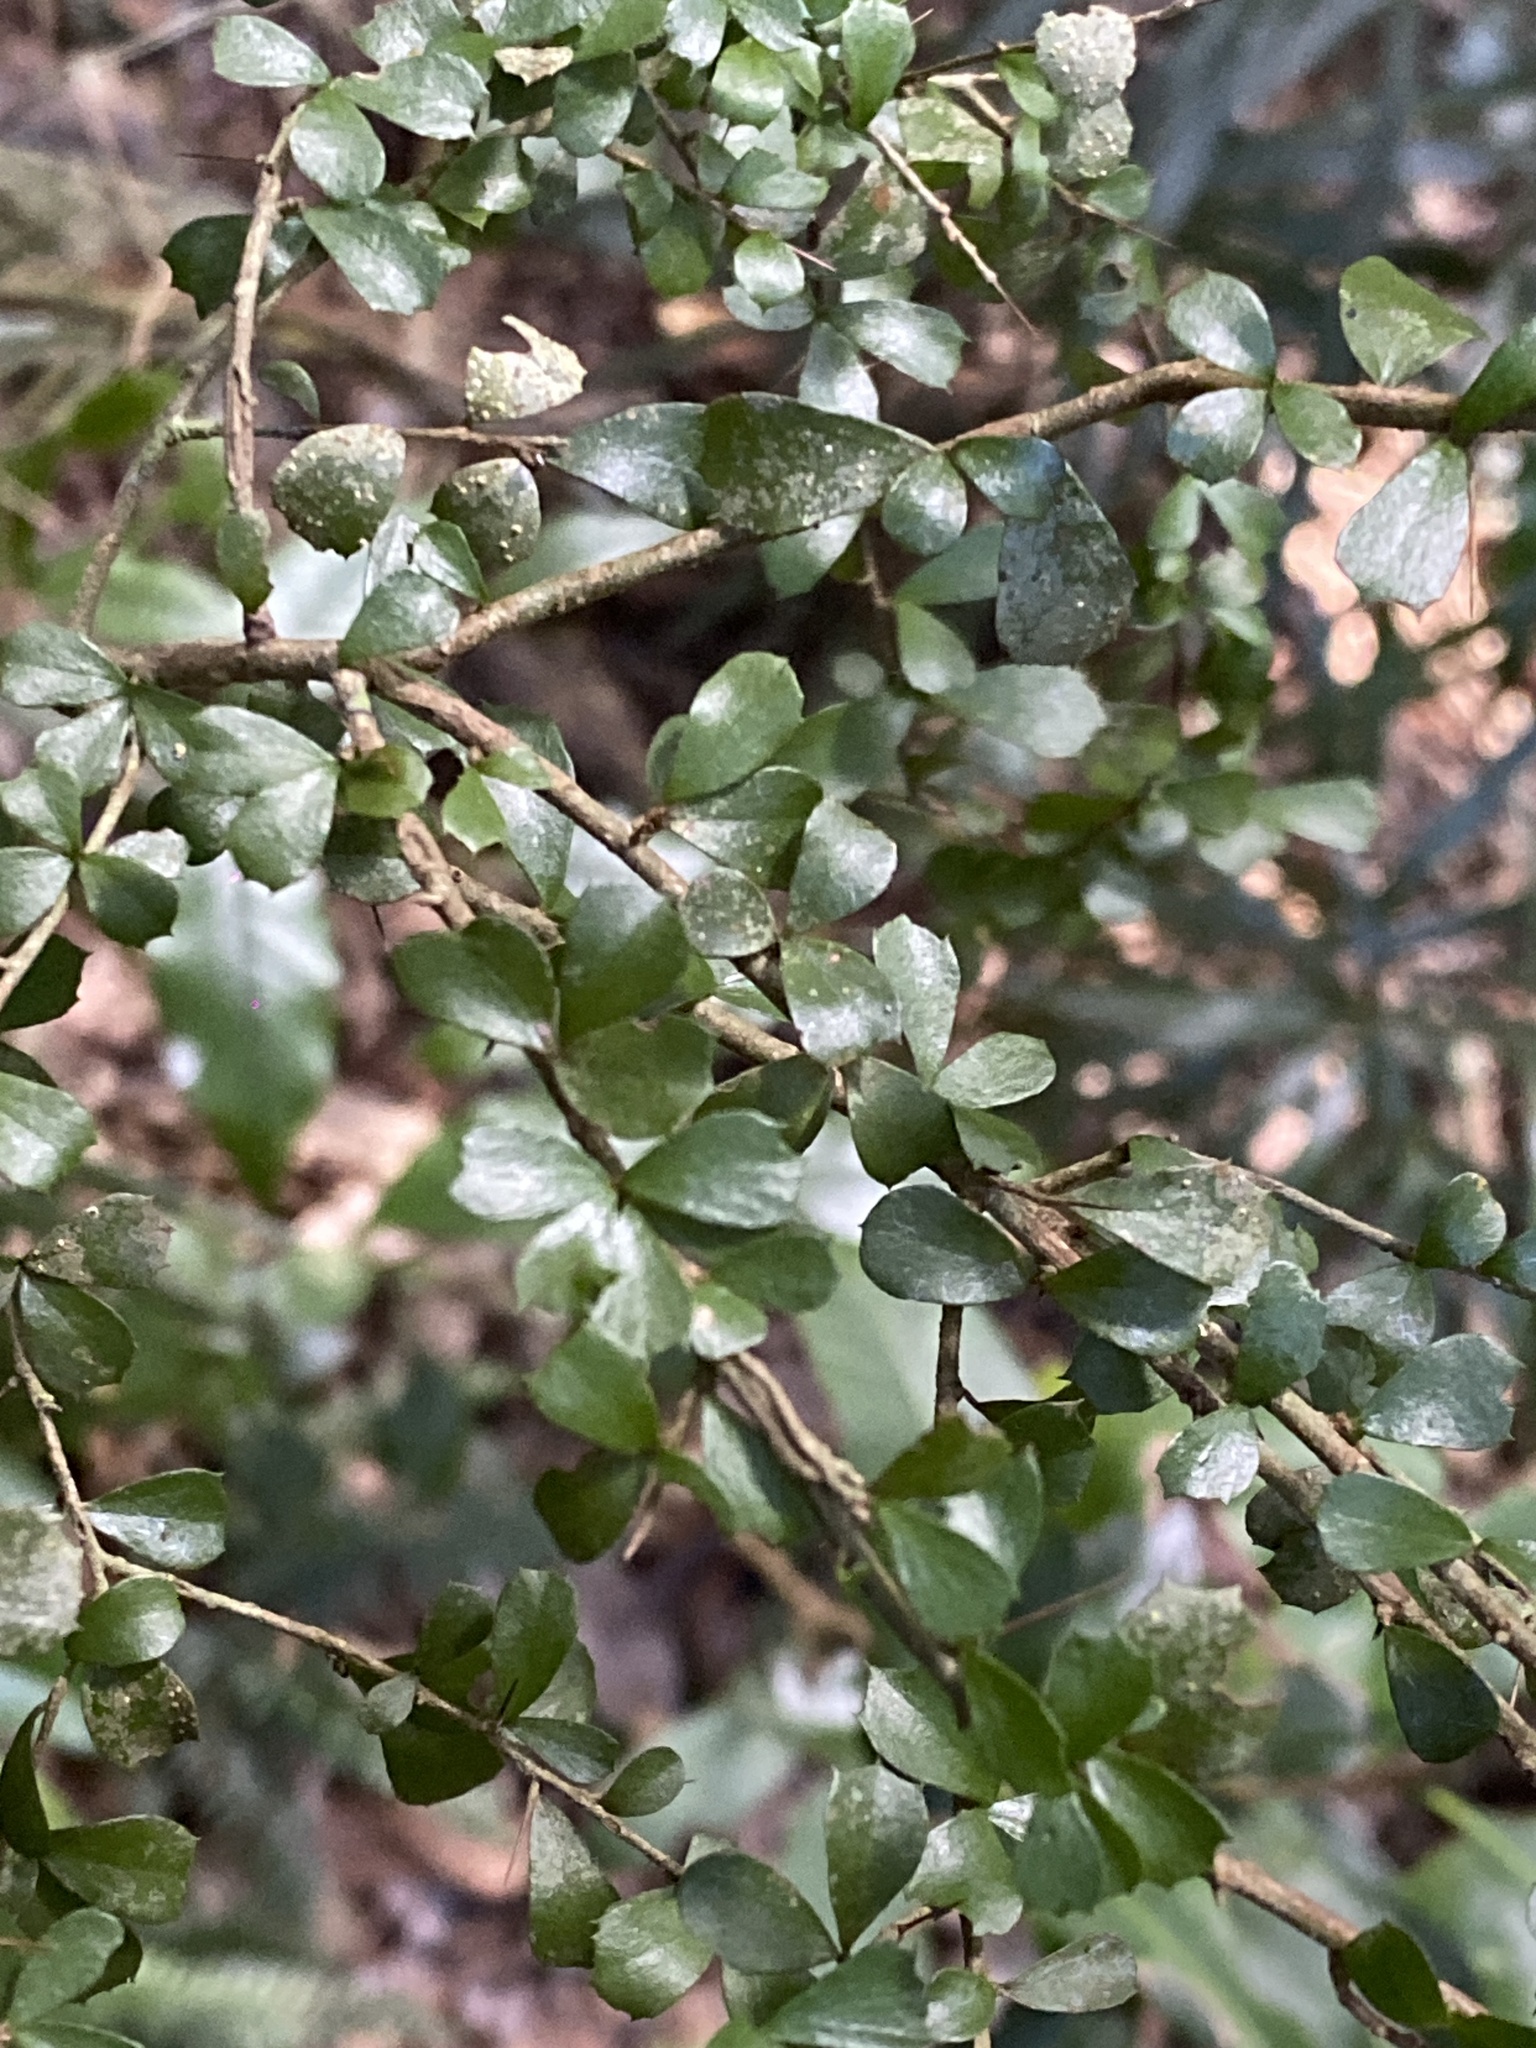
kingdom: Plantae
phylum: Tracheophyta
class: Magnoliopsida
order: Apiales
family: Pittosporaceae
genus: Pittosporum
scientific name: Pittosporum multiflorum
